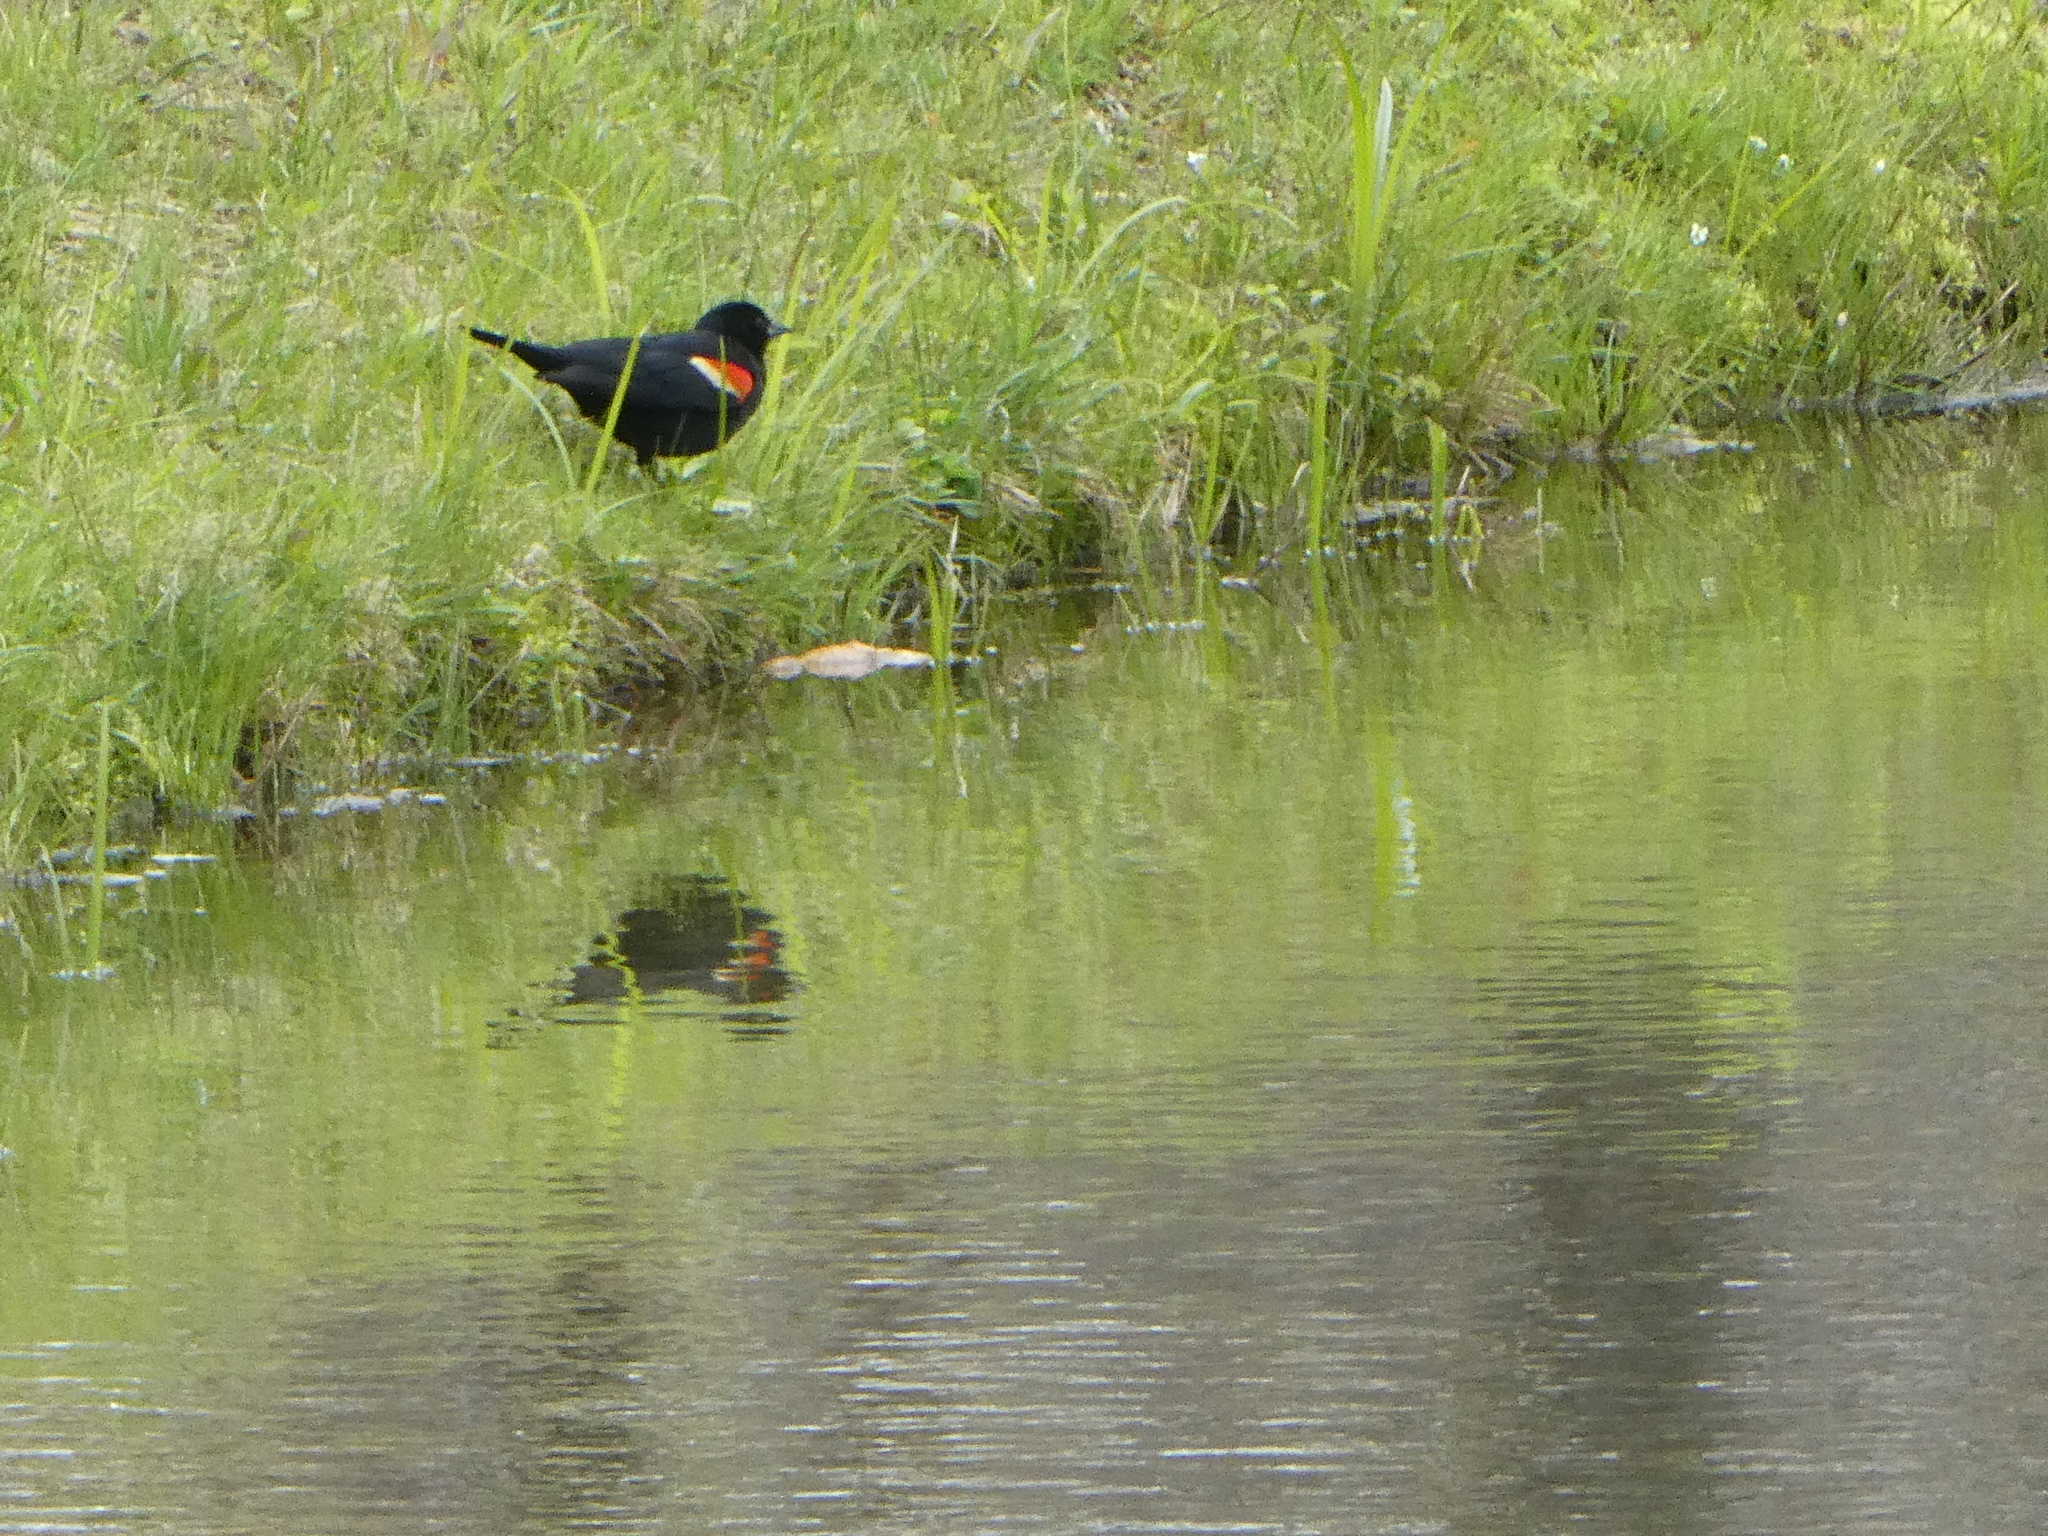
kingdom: Animalia
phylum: Chordata
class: Aves
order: Passeriformes
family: Icteridae
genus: Agelaius
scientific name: Agelaius phoeniceus
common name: Red-winged blackbird
